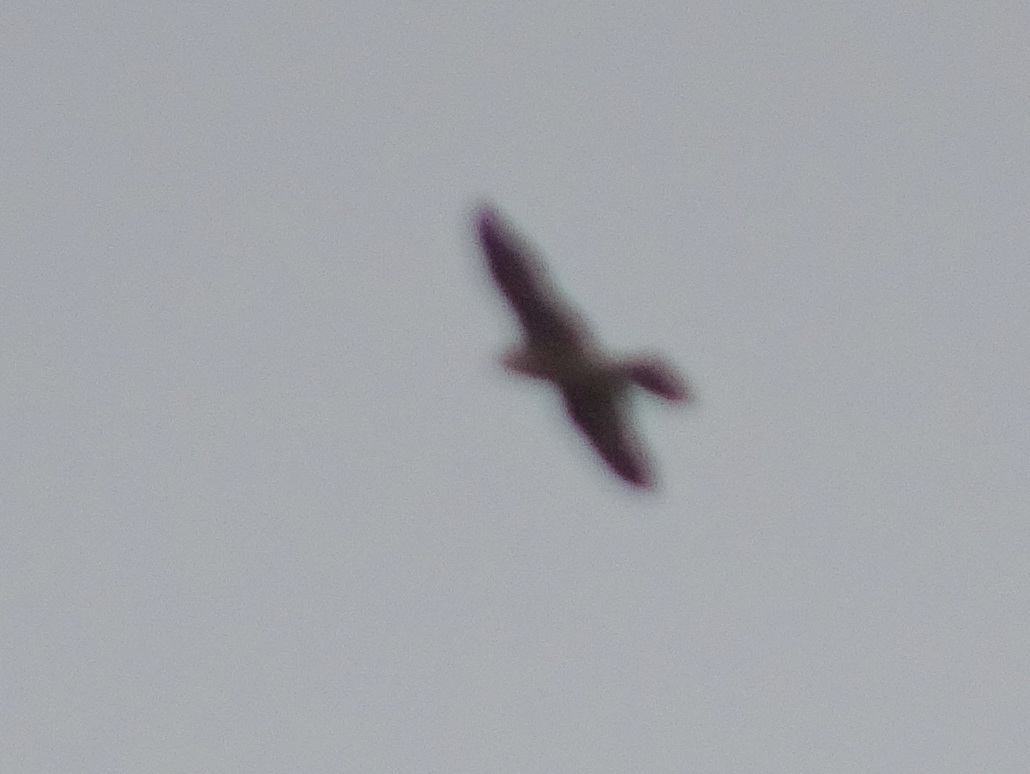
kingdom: Animalia
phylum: Chordata
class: Aves
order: Falconiformes
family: Falconidae
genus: Falco
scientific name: Falco peregrinus
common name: Peregrine falcon
